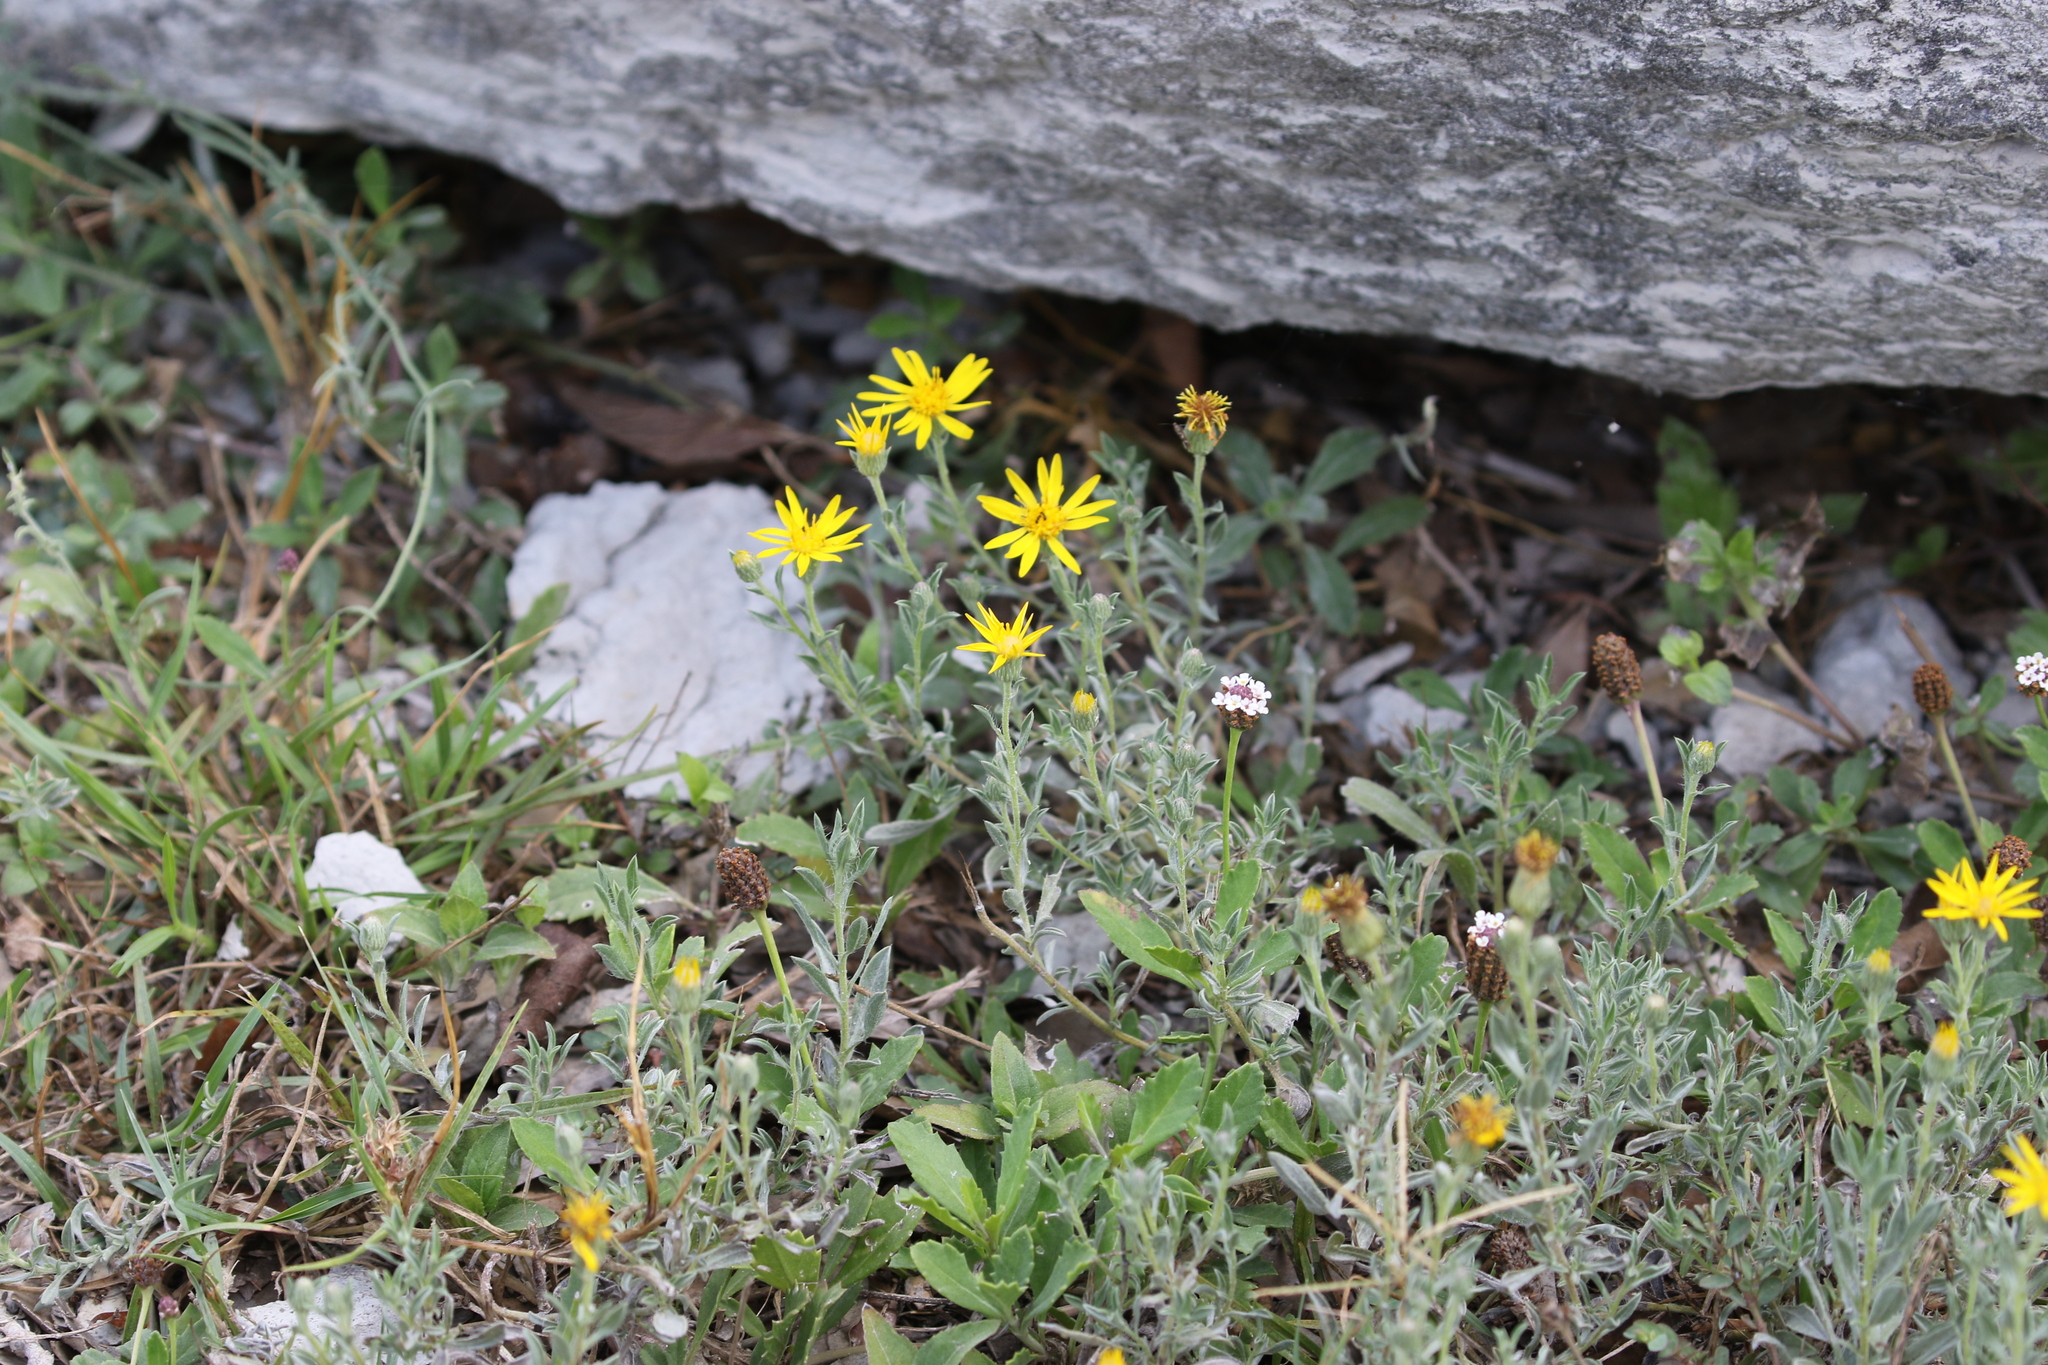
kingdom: Plantae
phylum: Tracheophyta
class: Magnoliopsida
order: Asterales
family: Asteraceae
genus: Heterotheca
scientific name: Heterotheca canescens
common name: Hoary golden-aster
